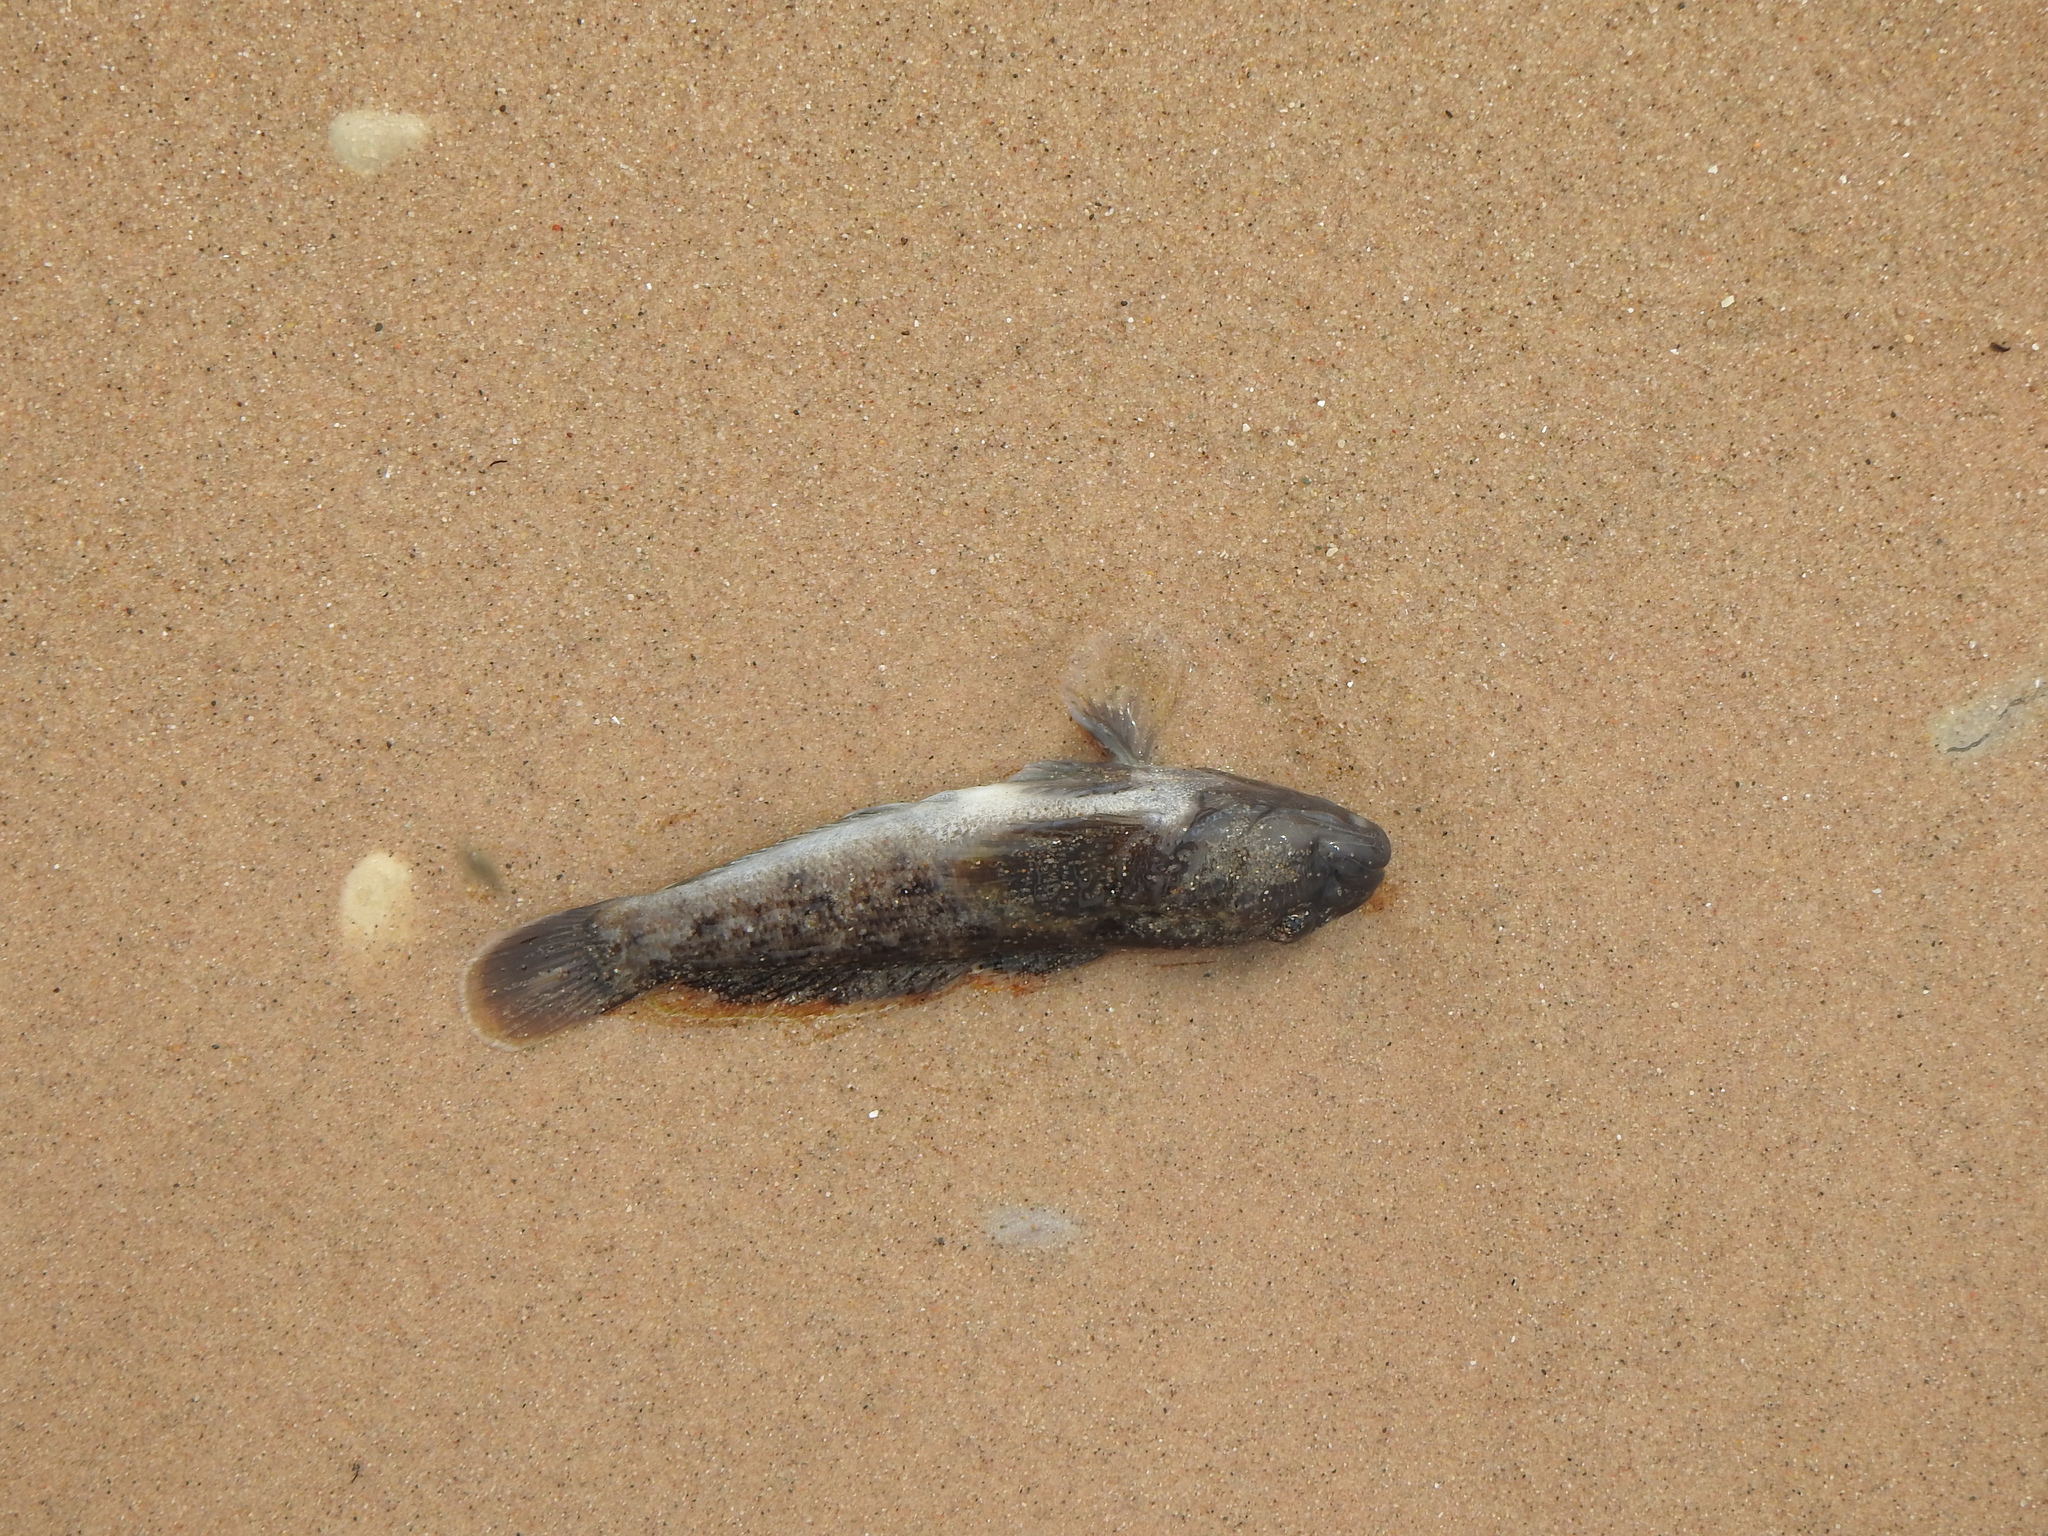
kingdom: Animalia
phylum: Chordata
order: Perciformes
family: Gobiidae
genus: Neogobius
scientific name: Neogobius melanostomus
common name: Round goby
